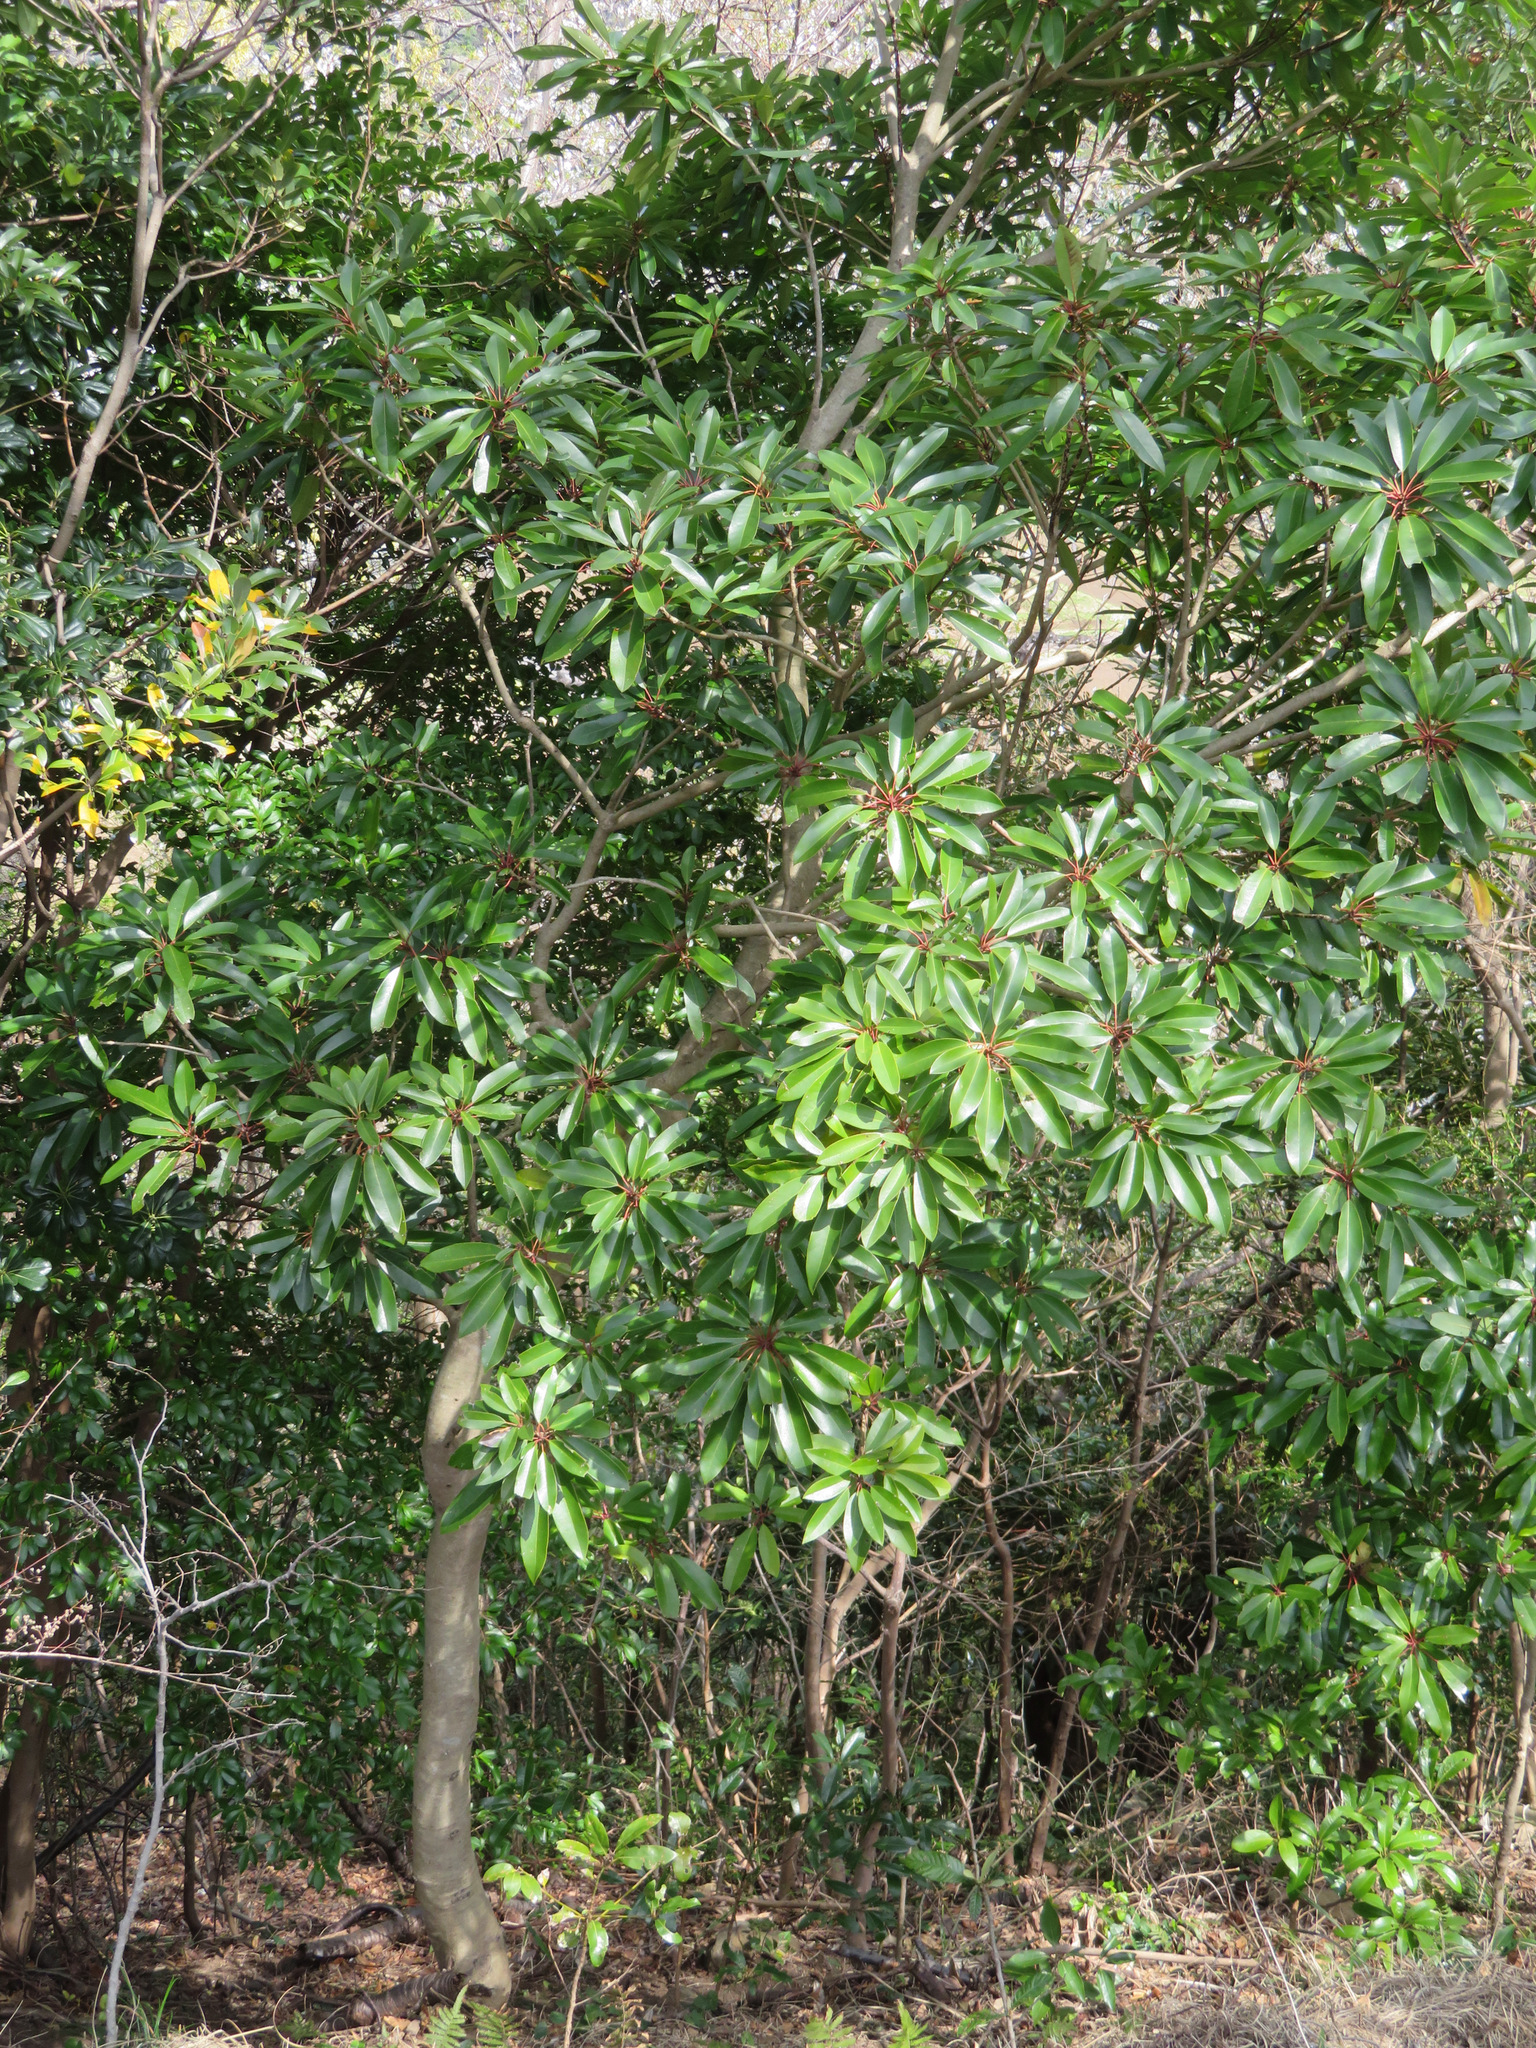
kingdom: Plantae
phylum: Tracheophyta
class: Magnoliopsida
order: Saxifragales
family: Daphniphyllaceae
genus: Daphniphyllum
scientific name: Daphniphyllum macropodum
